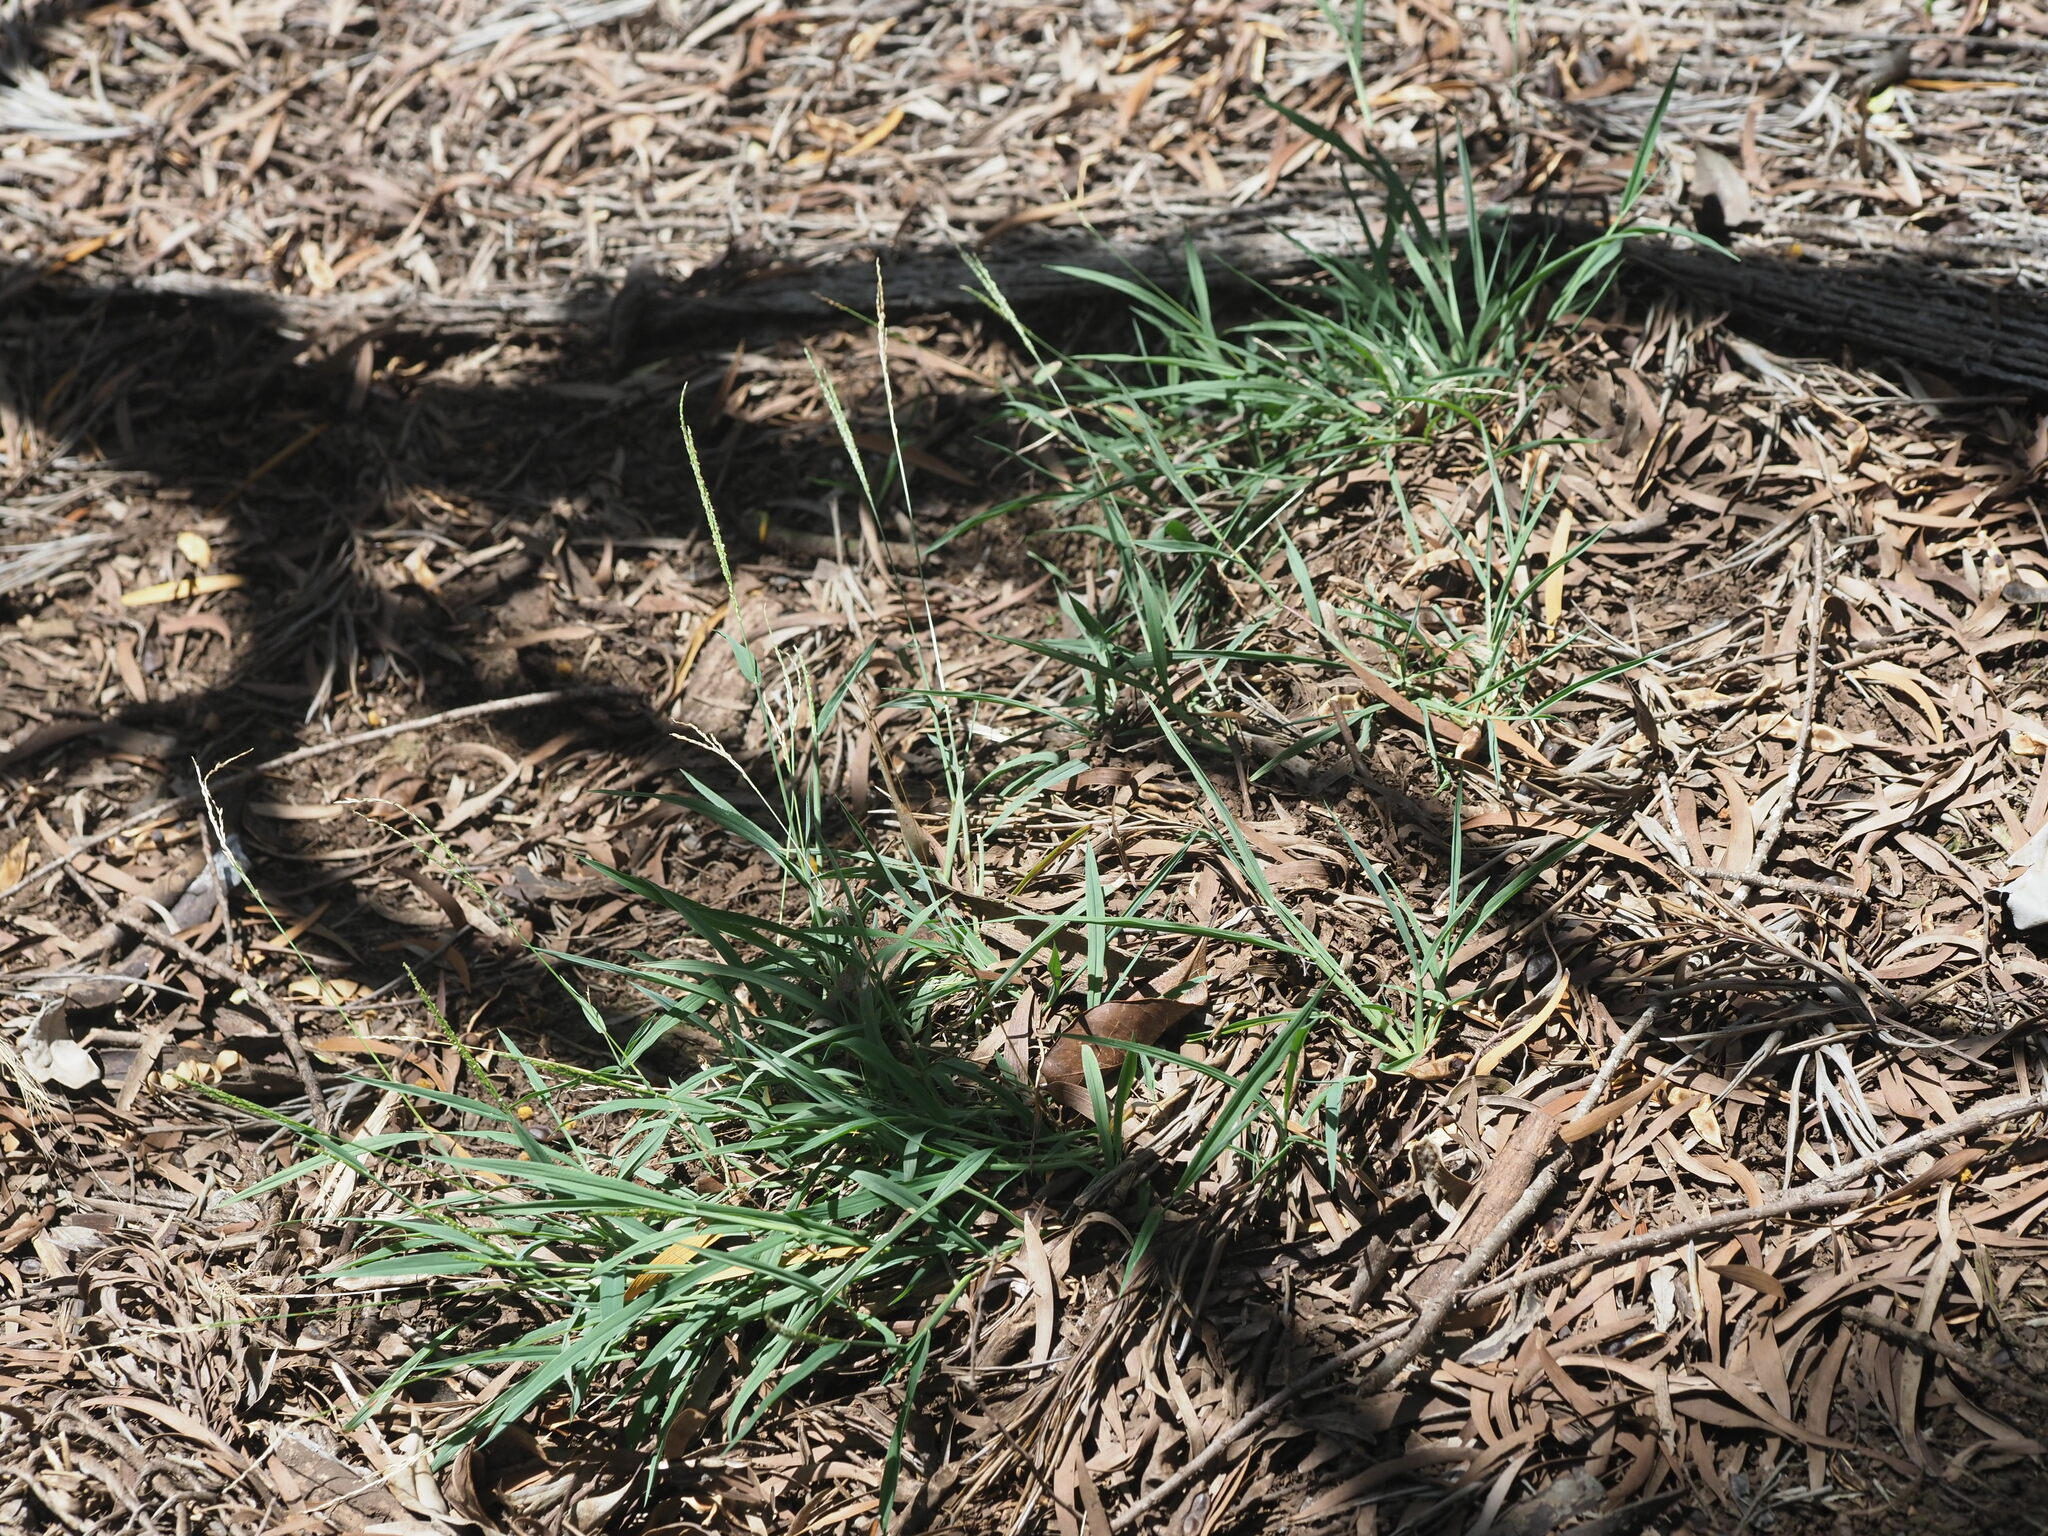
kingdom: Plantae
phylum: Tracheophyta
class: Liliopsida
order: Poales
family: Poaceae
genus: Digitaria
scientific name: Digitaria ciliaris
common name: Tropical finger-grass
